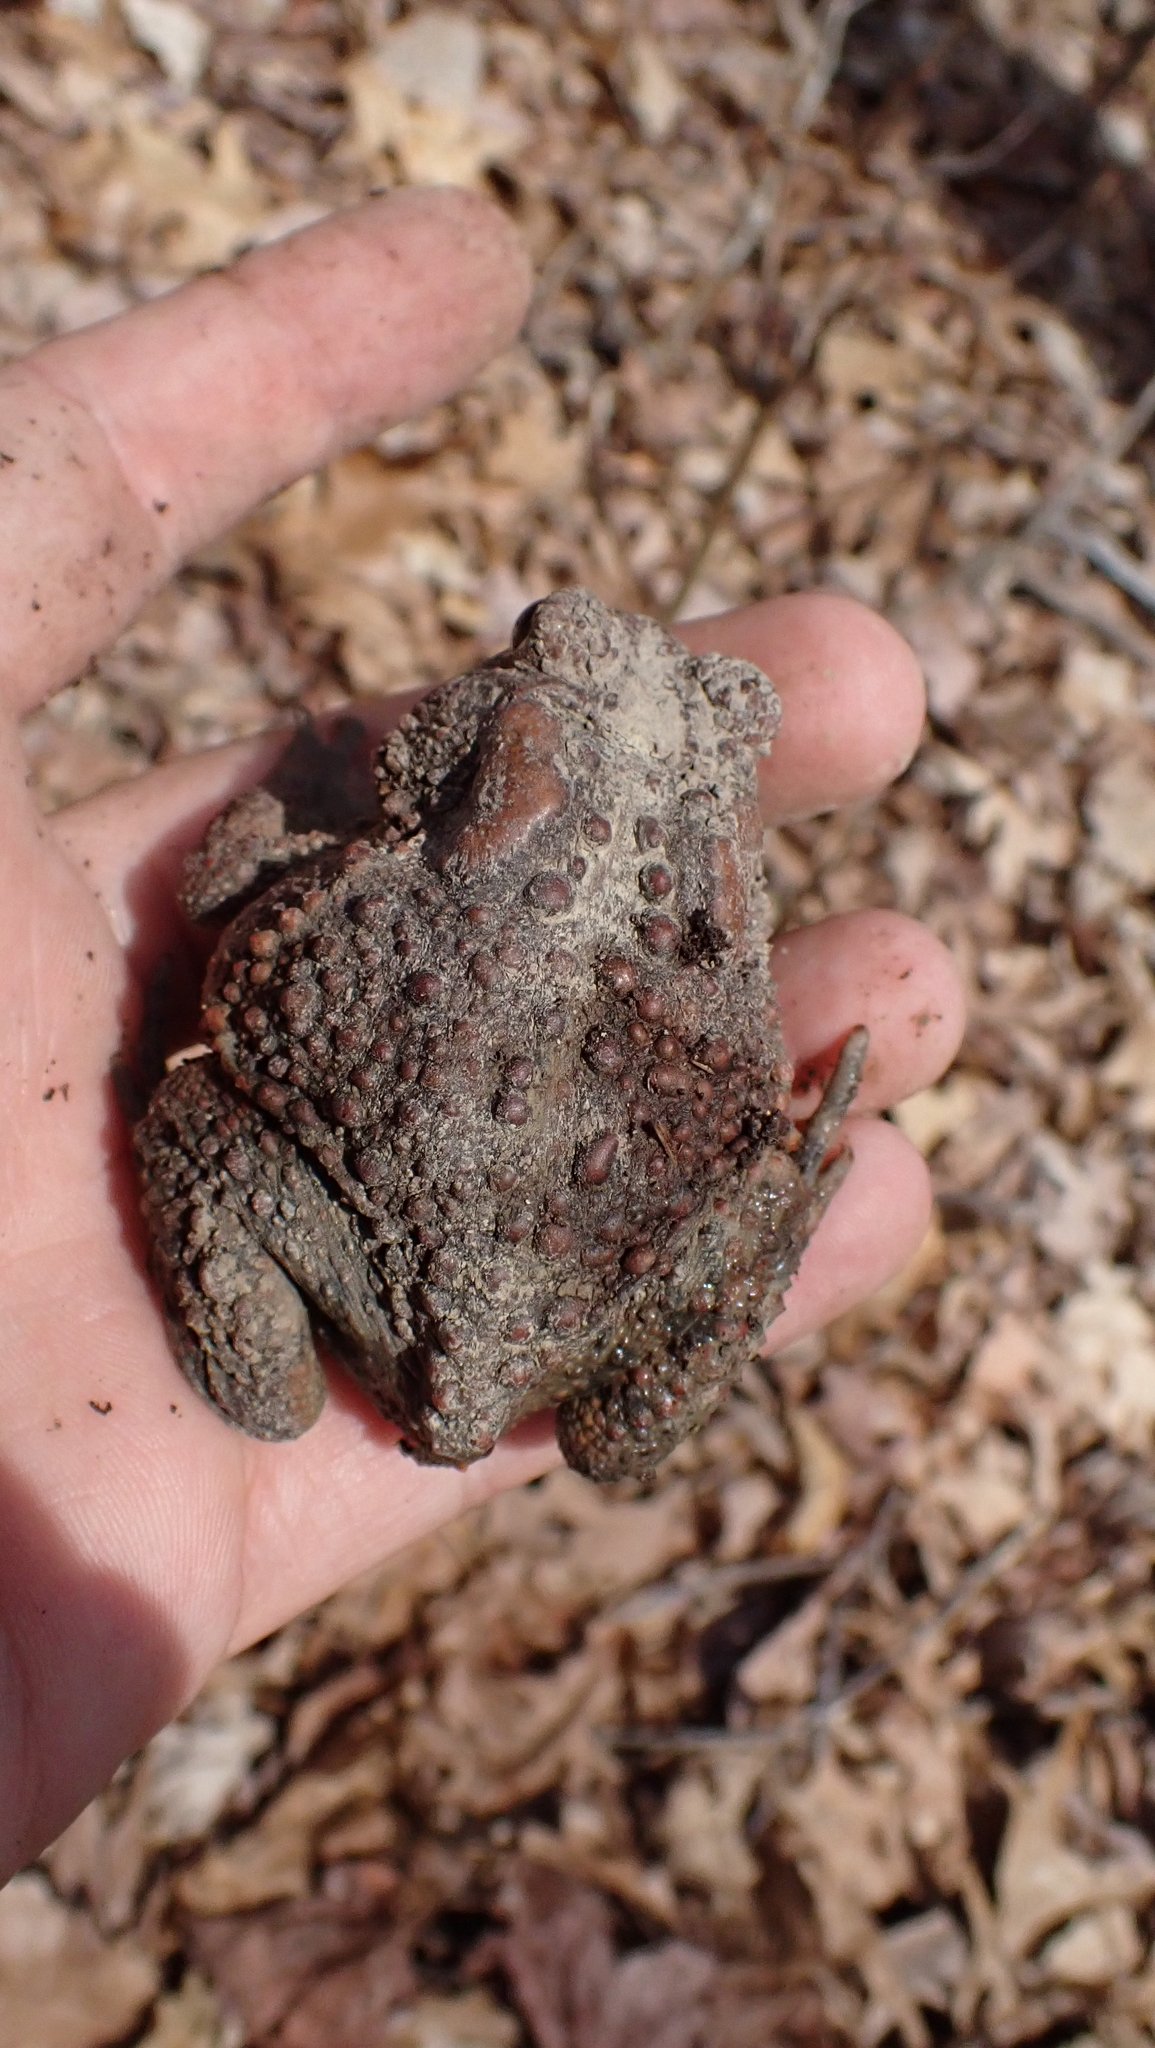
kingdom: Animalia
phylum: Chordata
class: Amphibia
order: Anura
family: Bufonidae
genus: Anaxyrus
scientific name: Anaxyrus americanus
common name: American toad
